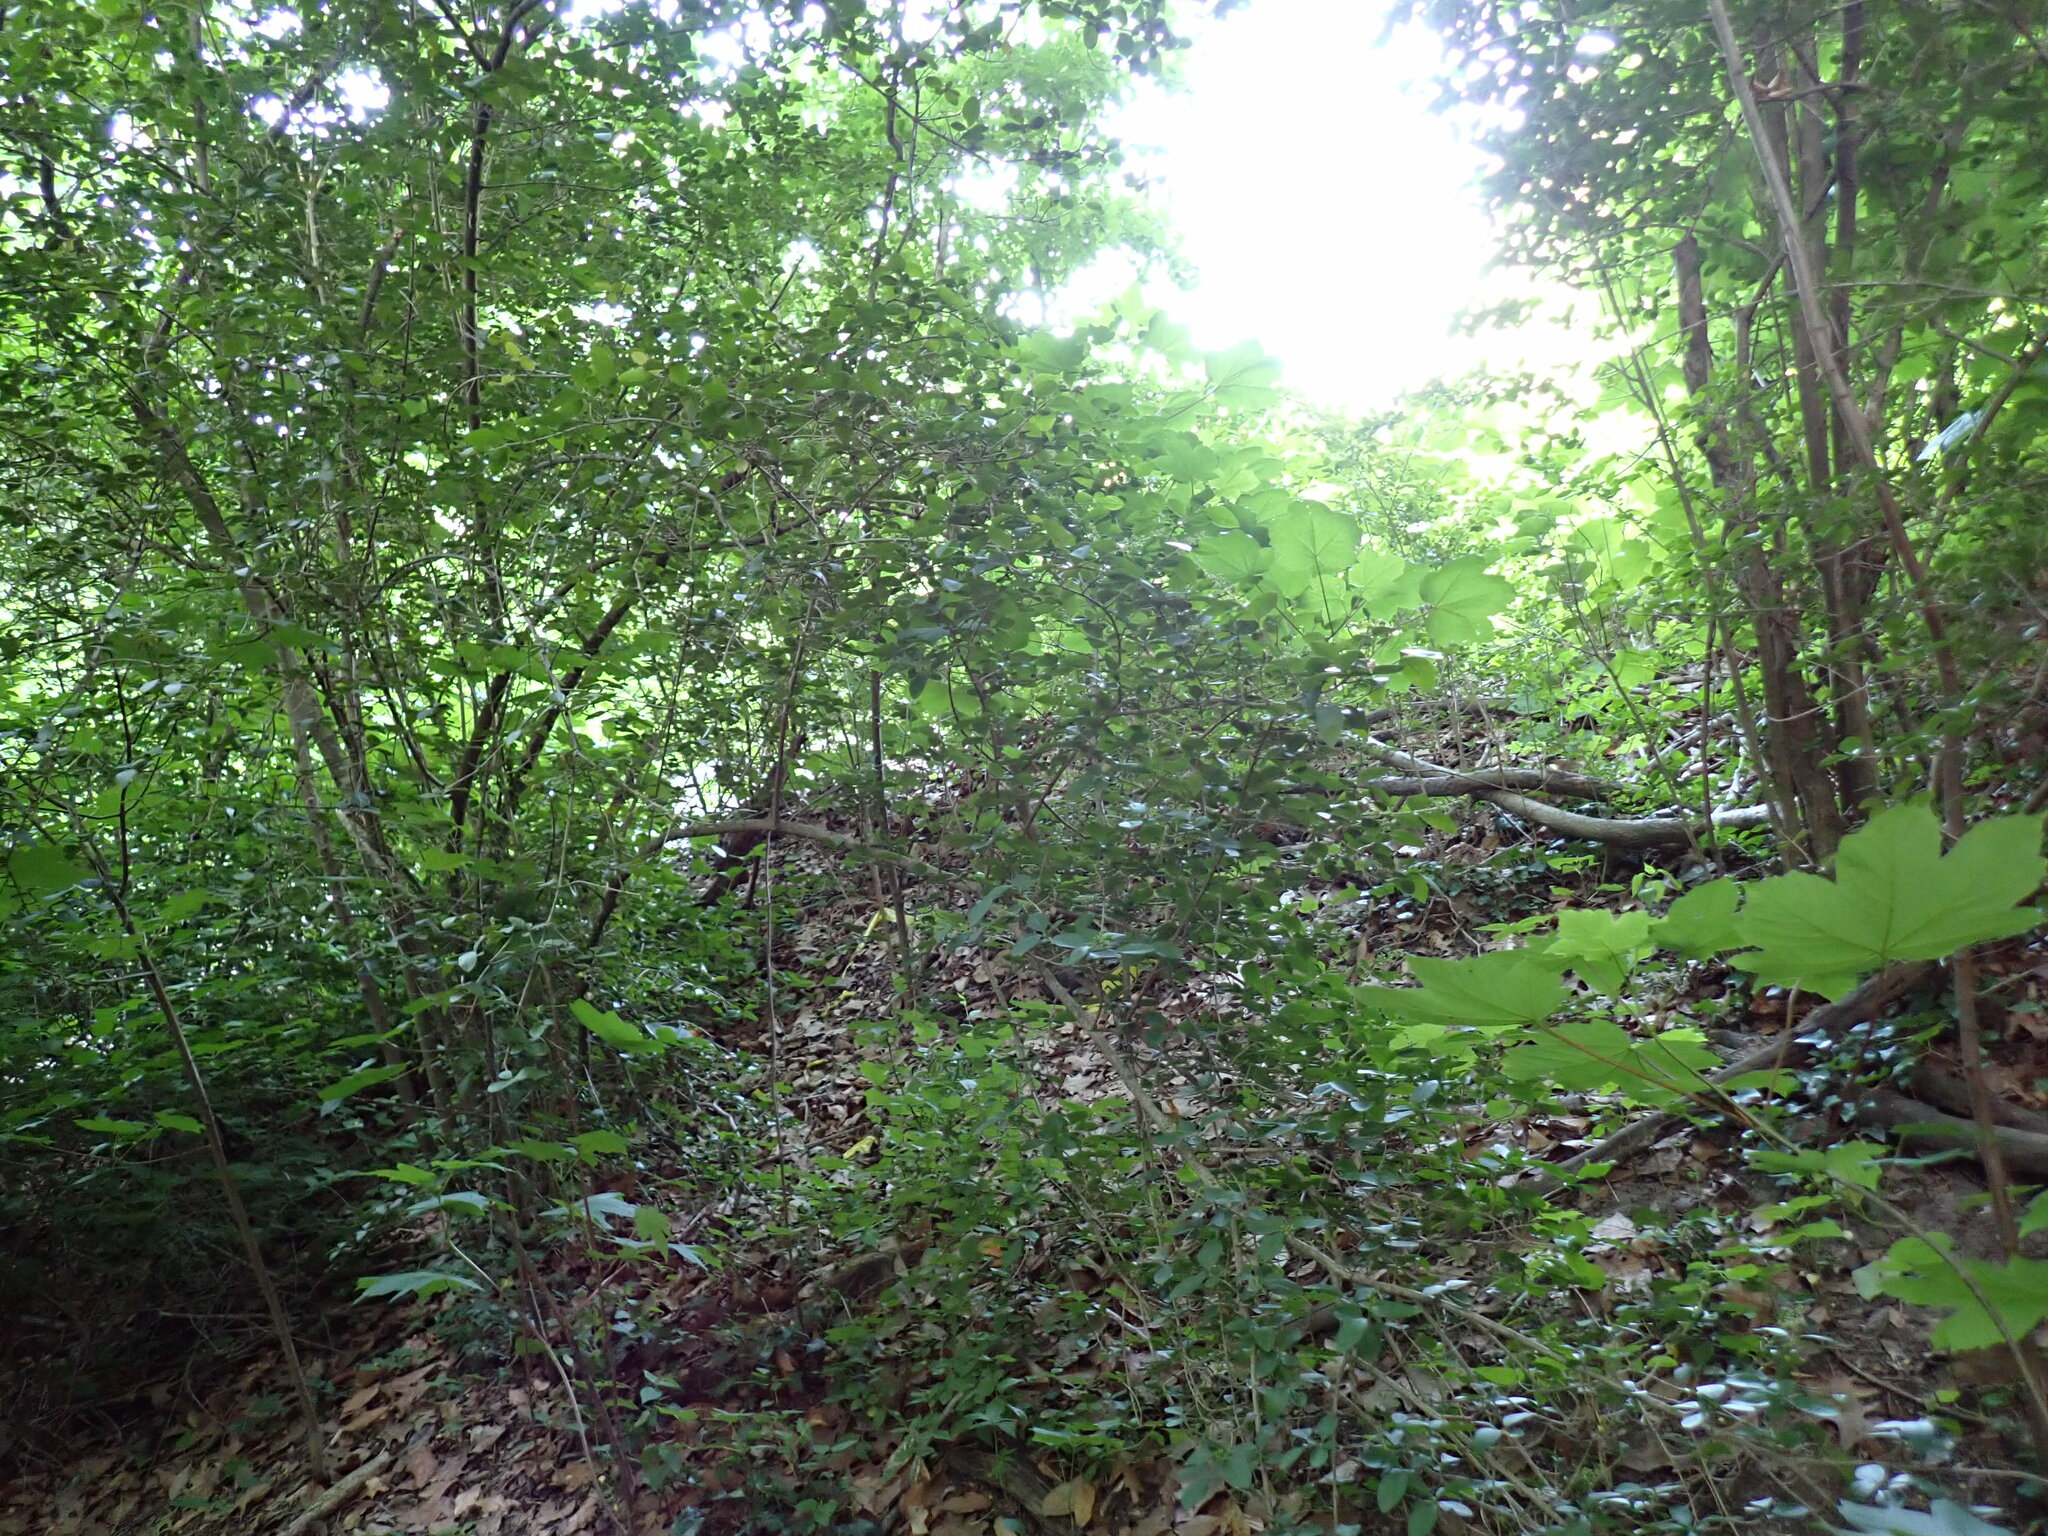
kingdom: Plantae
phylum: Tracheophyta
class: Magnoliopsida
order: Lamiales
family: Oleaceae
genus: Ligustrum
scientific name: Ligustrum ovalifolium
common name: California privet
